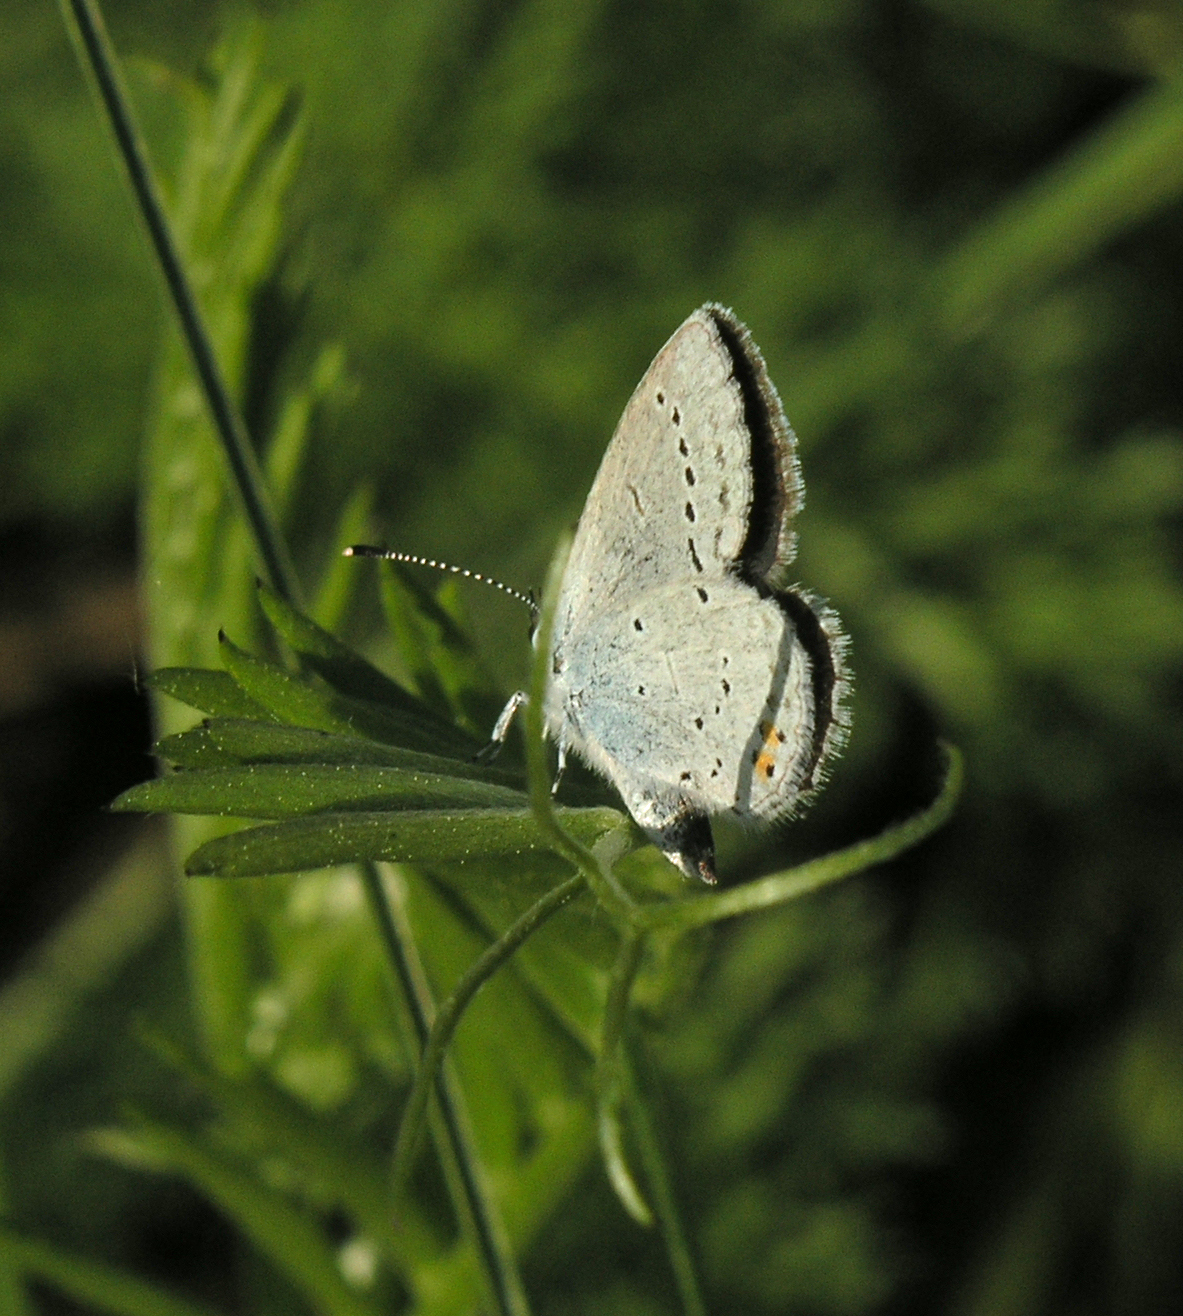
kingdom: Animalia
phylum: Arthropoda
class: Insecta
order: Lepidoptera
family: Lycaenidae
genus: Elkalyce
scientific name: Elkalyce argiades
